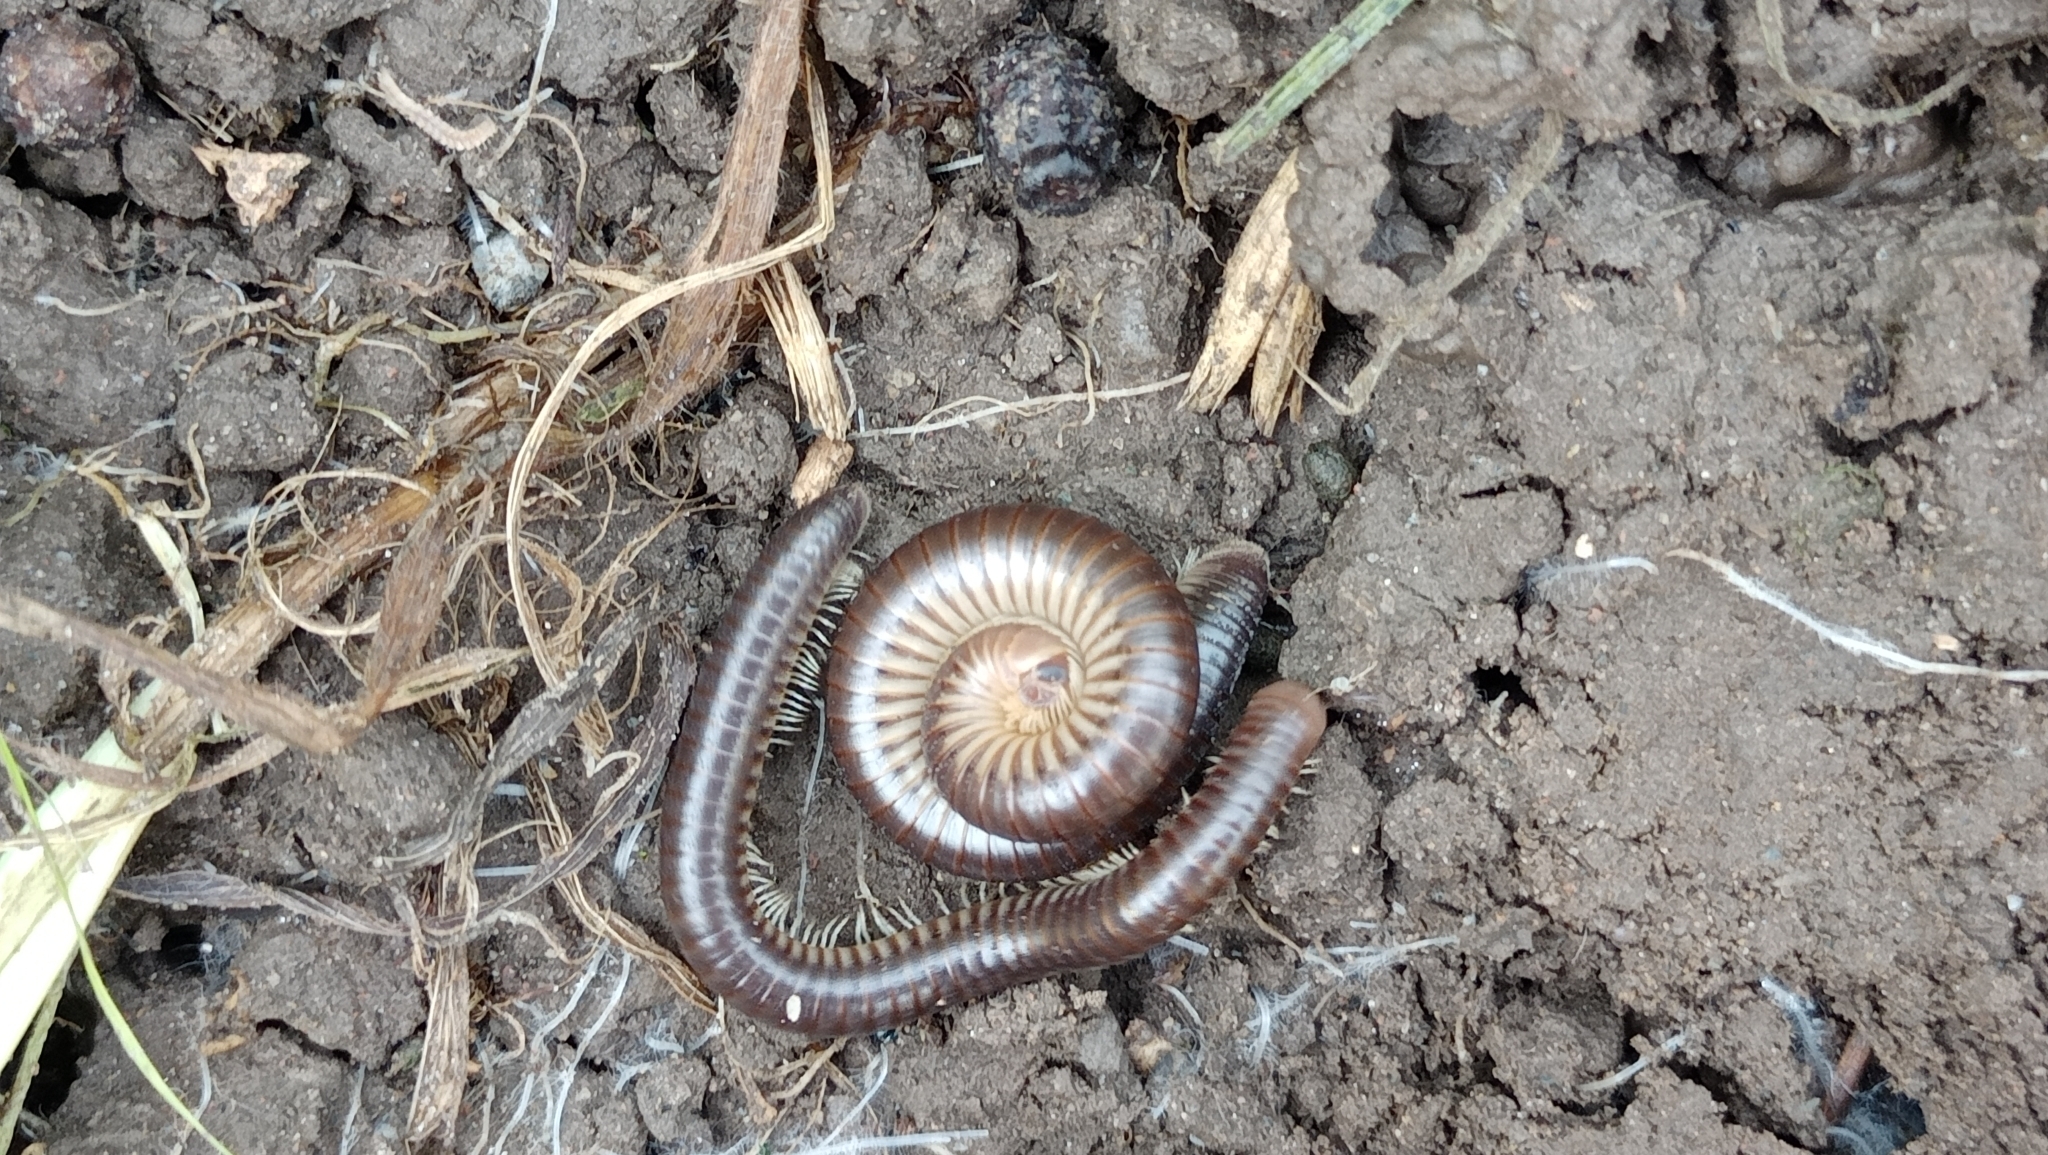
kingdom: Animalia
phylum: Arthropoda
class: Diplopoda
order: Julida
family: Julidae
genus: Pachyiulus
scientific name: Pachyiulus flavipes
